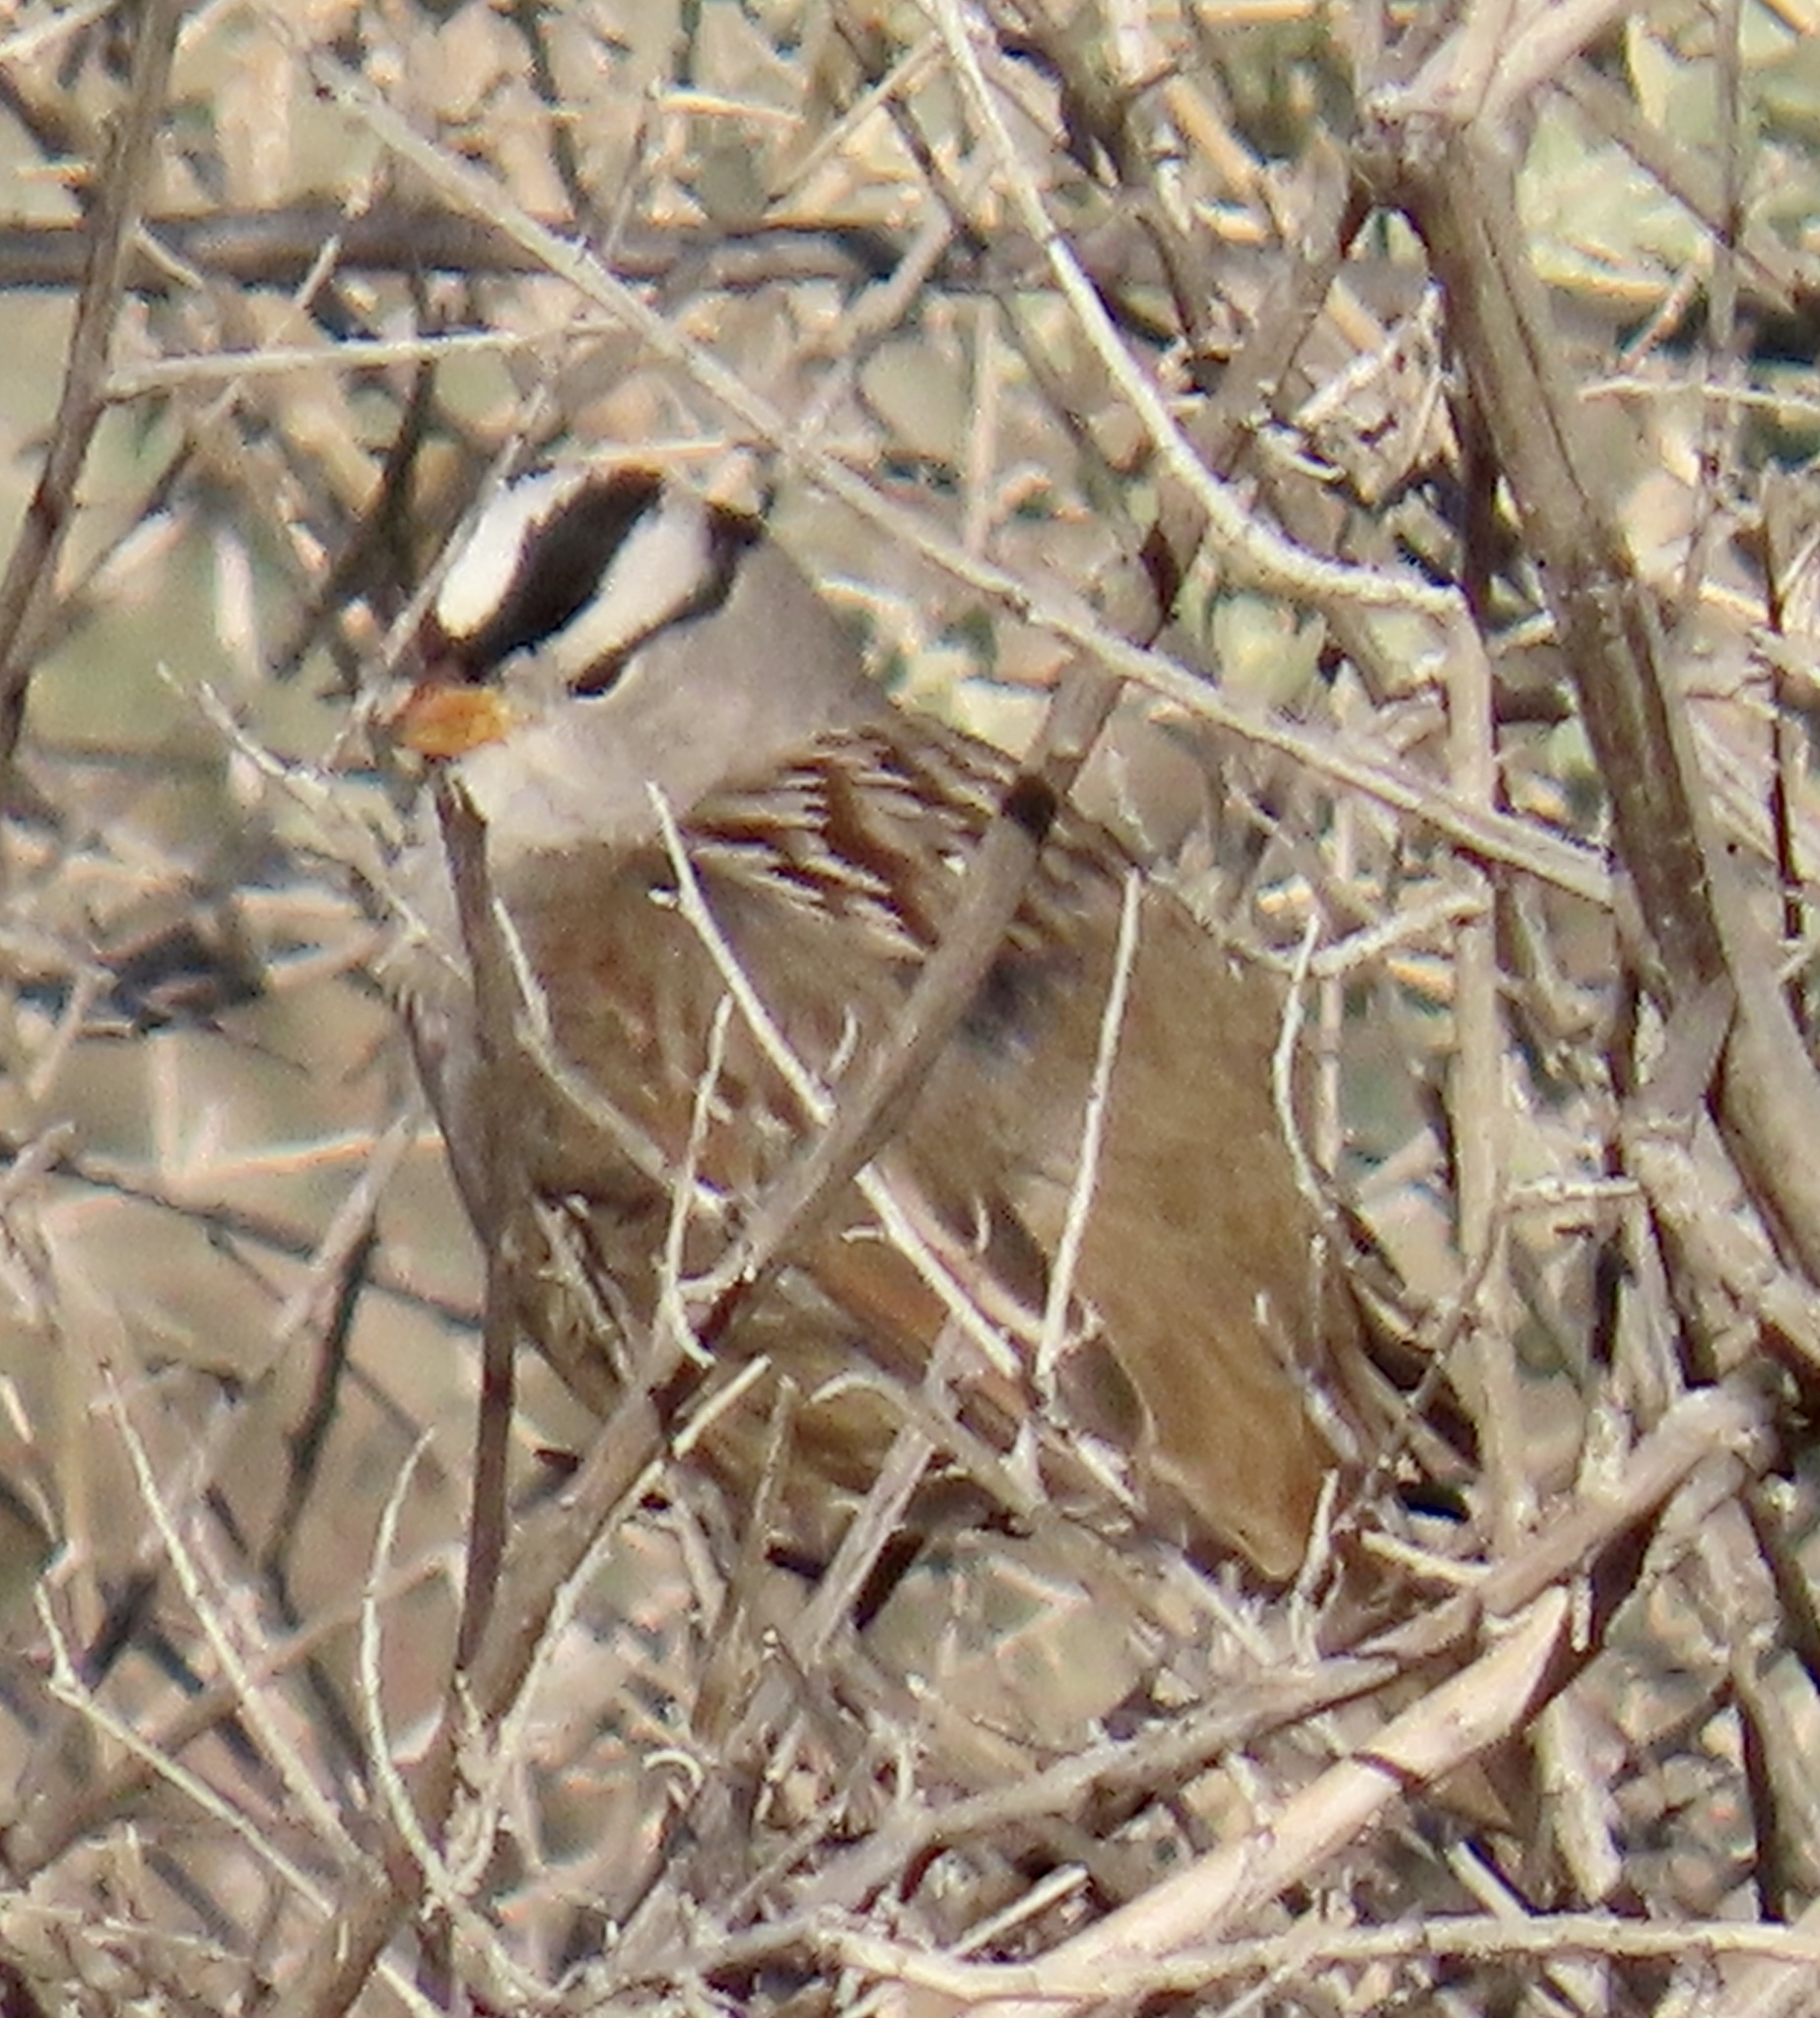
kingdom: Animalia
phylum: Chordata
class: Aves
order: Passeriformes
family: Passerellidae
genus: Zonotrichia
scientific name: Zonotrichia leucophrys
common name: White-crowned sparrow
